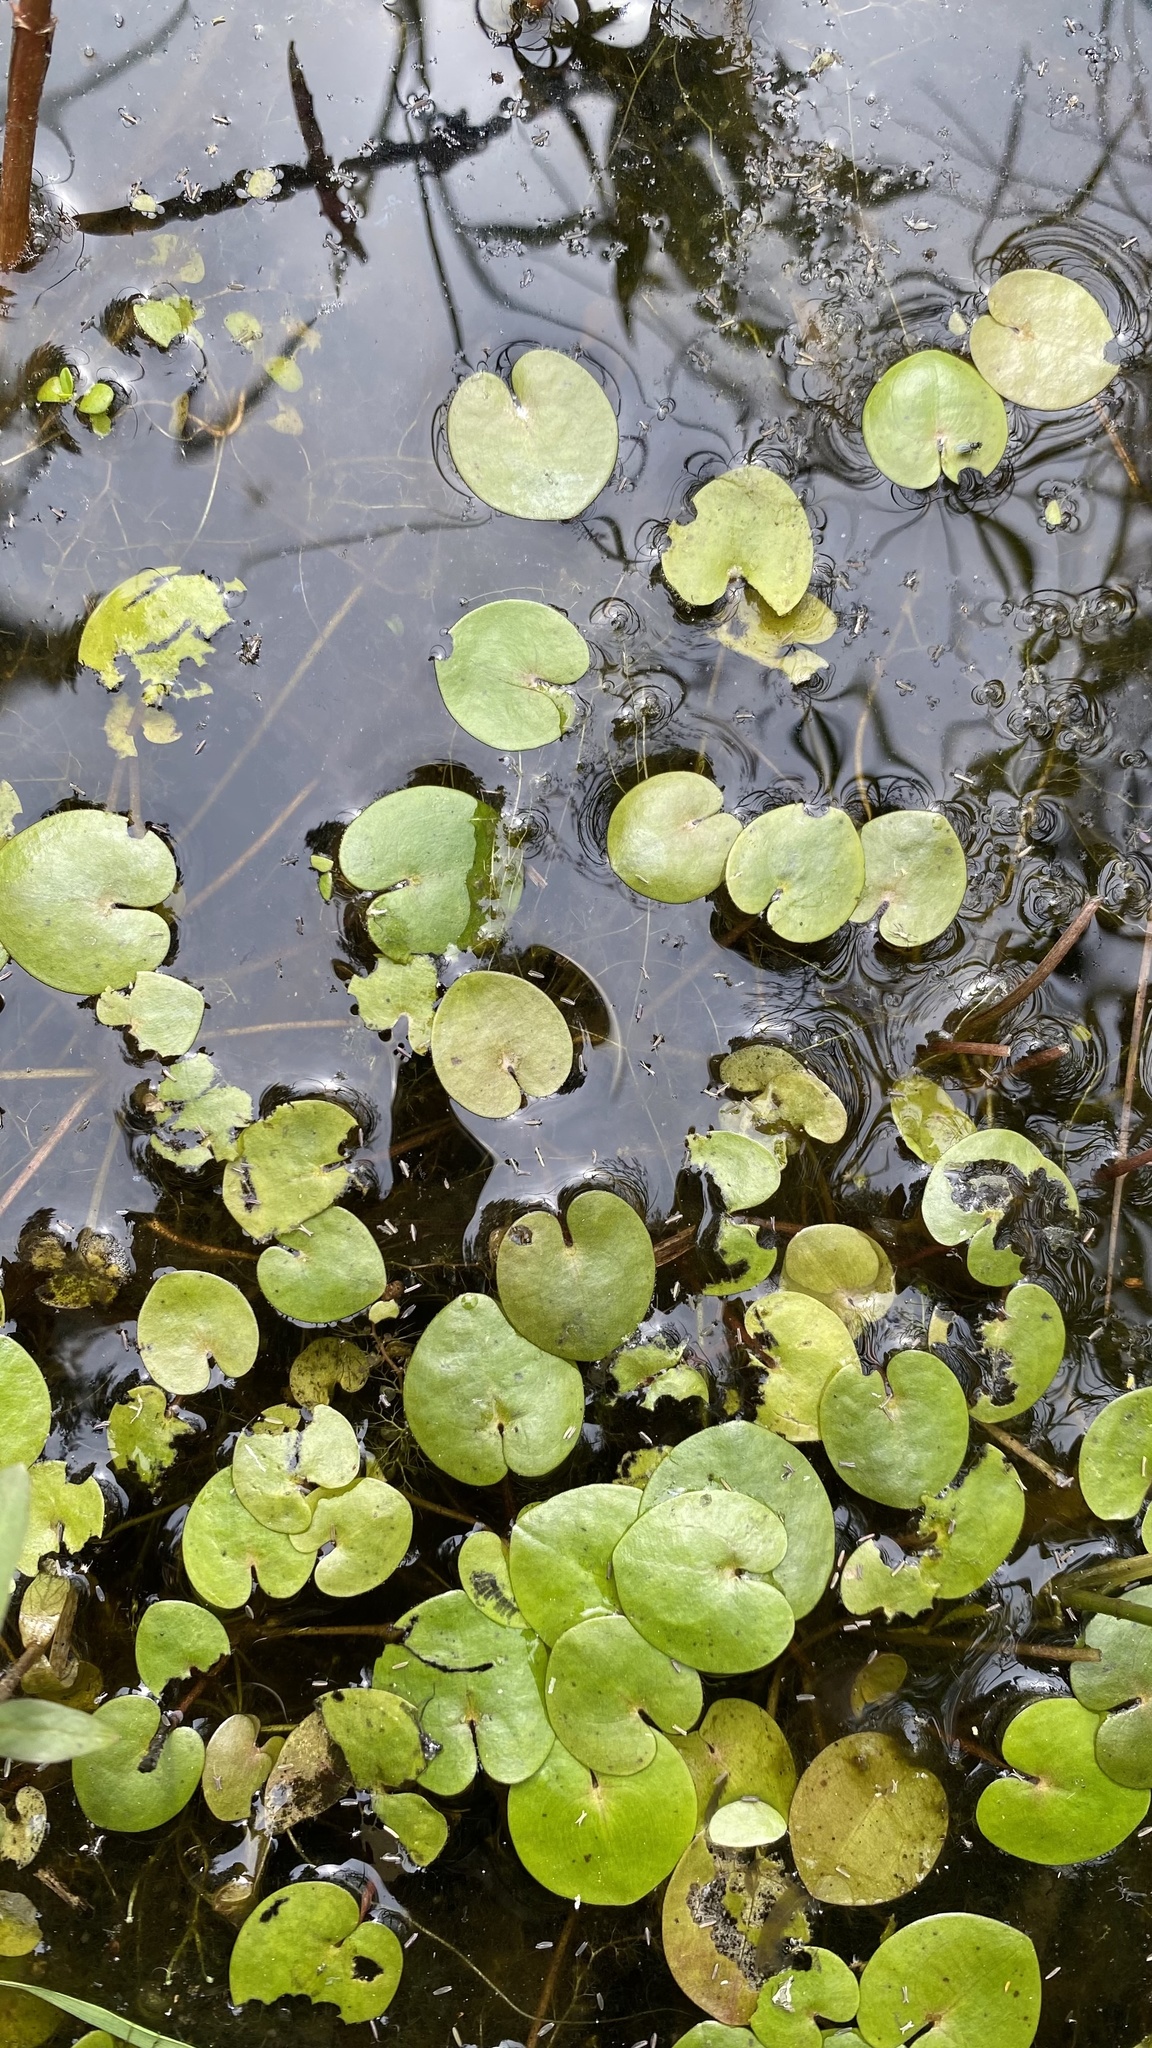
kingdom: Plantae
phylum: Tracheophyta
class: Liliopsida
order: Alismatales
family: Hydrocharitaceae
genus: Hydrocharis
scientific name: Hydrocharis morsus-ranae
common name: Frogbit
